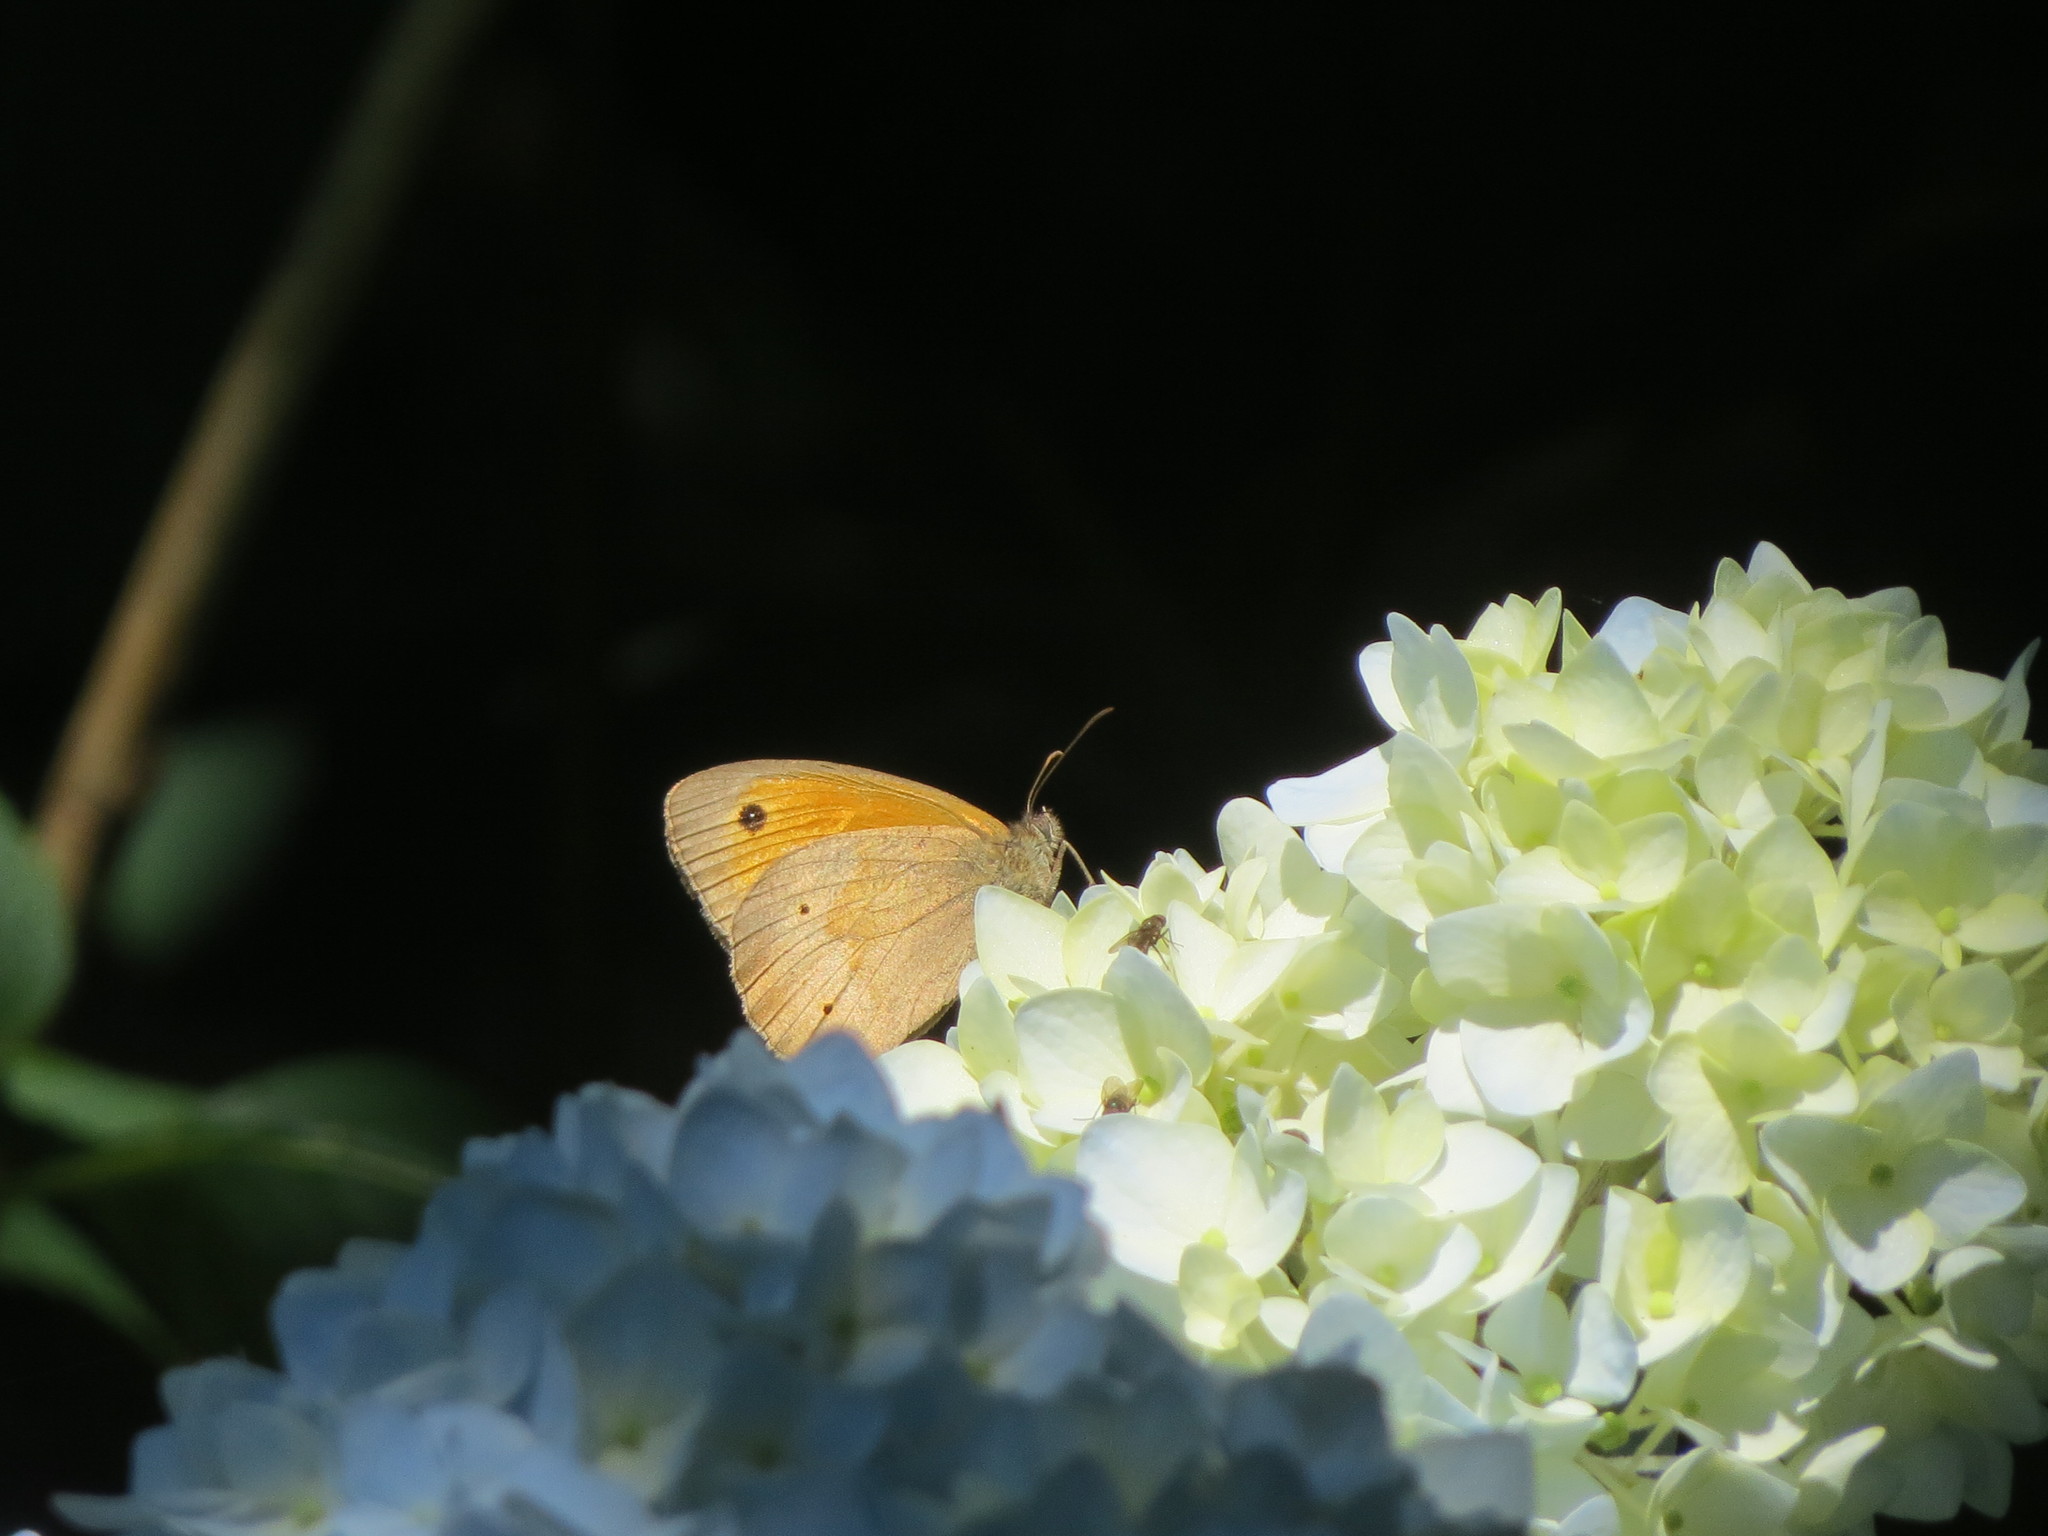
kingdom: Animalia
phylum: Arthropoda
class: Insecta
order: Lepidoptera
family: Nymphalidae
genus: Maniola
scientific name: Maniola jurtina
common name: Meadow brown
